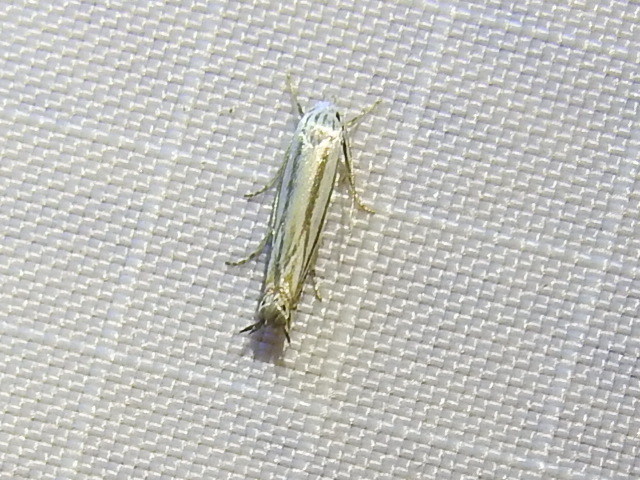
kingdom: Animalia
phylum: Arthropoda
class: Insecta
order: Lepidoptera
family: Gelechiidae
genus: Polyhymno
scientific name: Polyhymno luteostrigella
